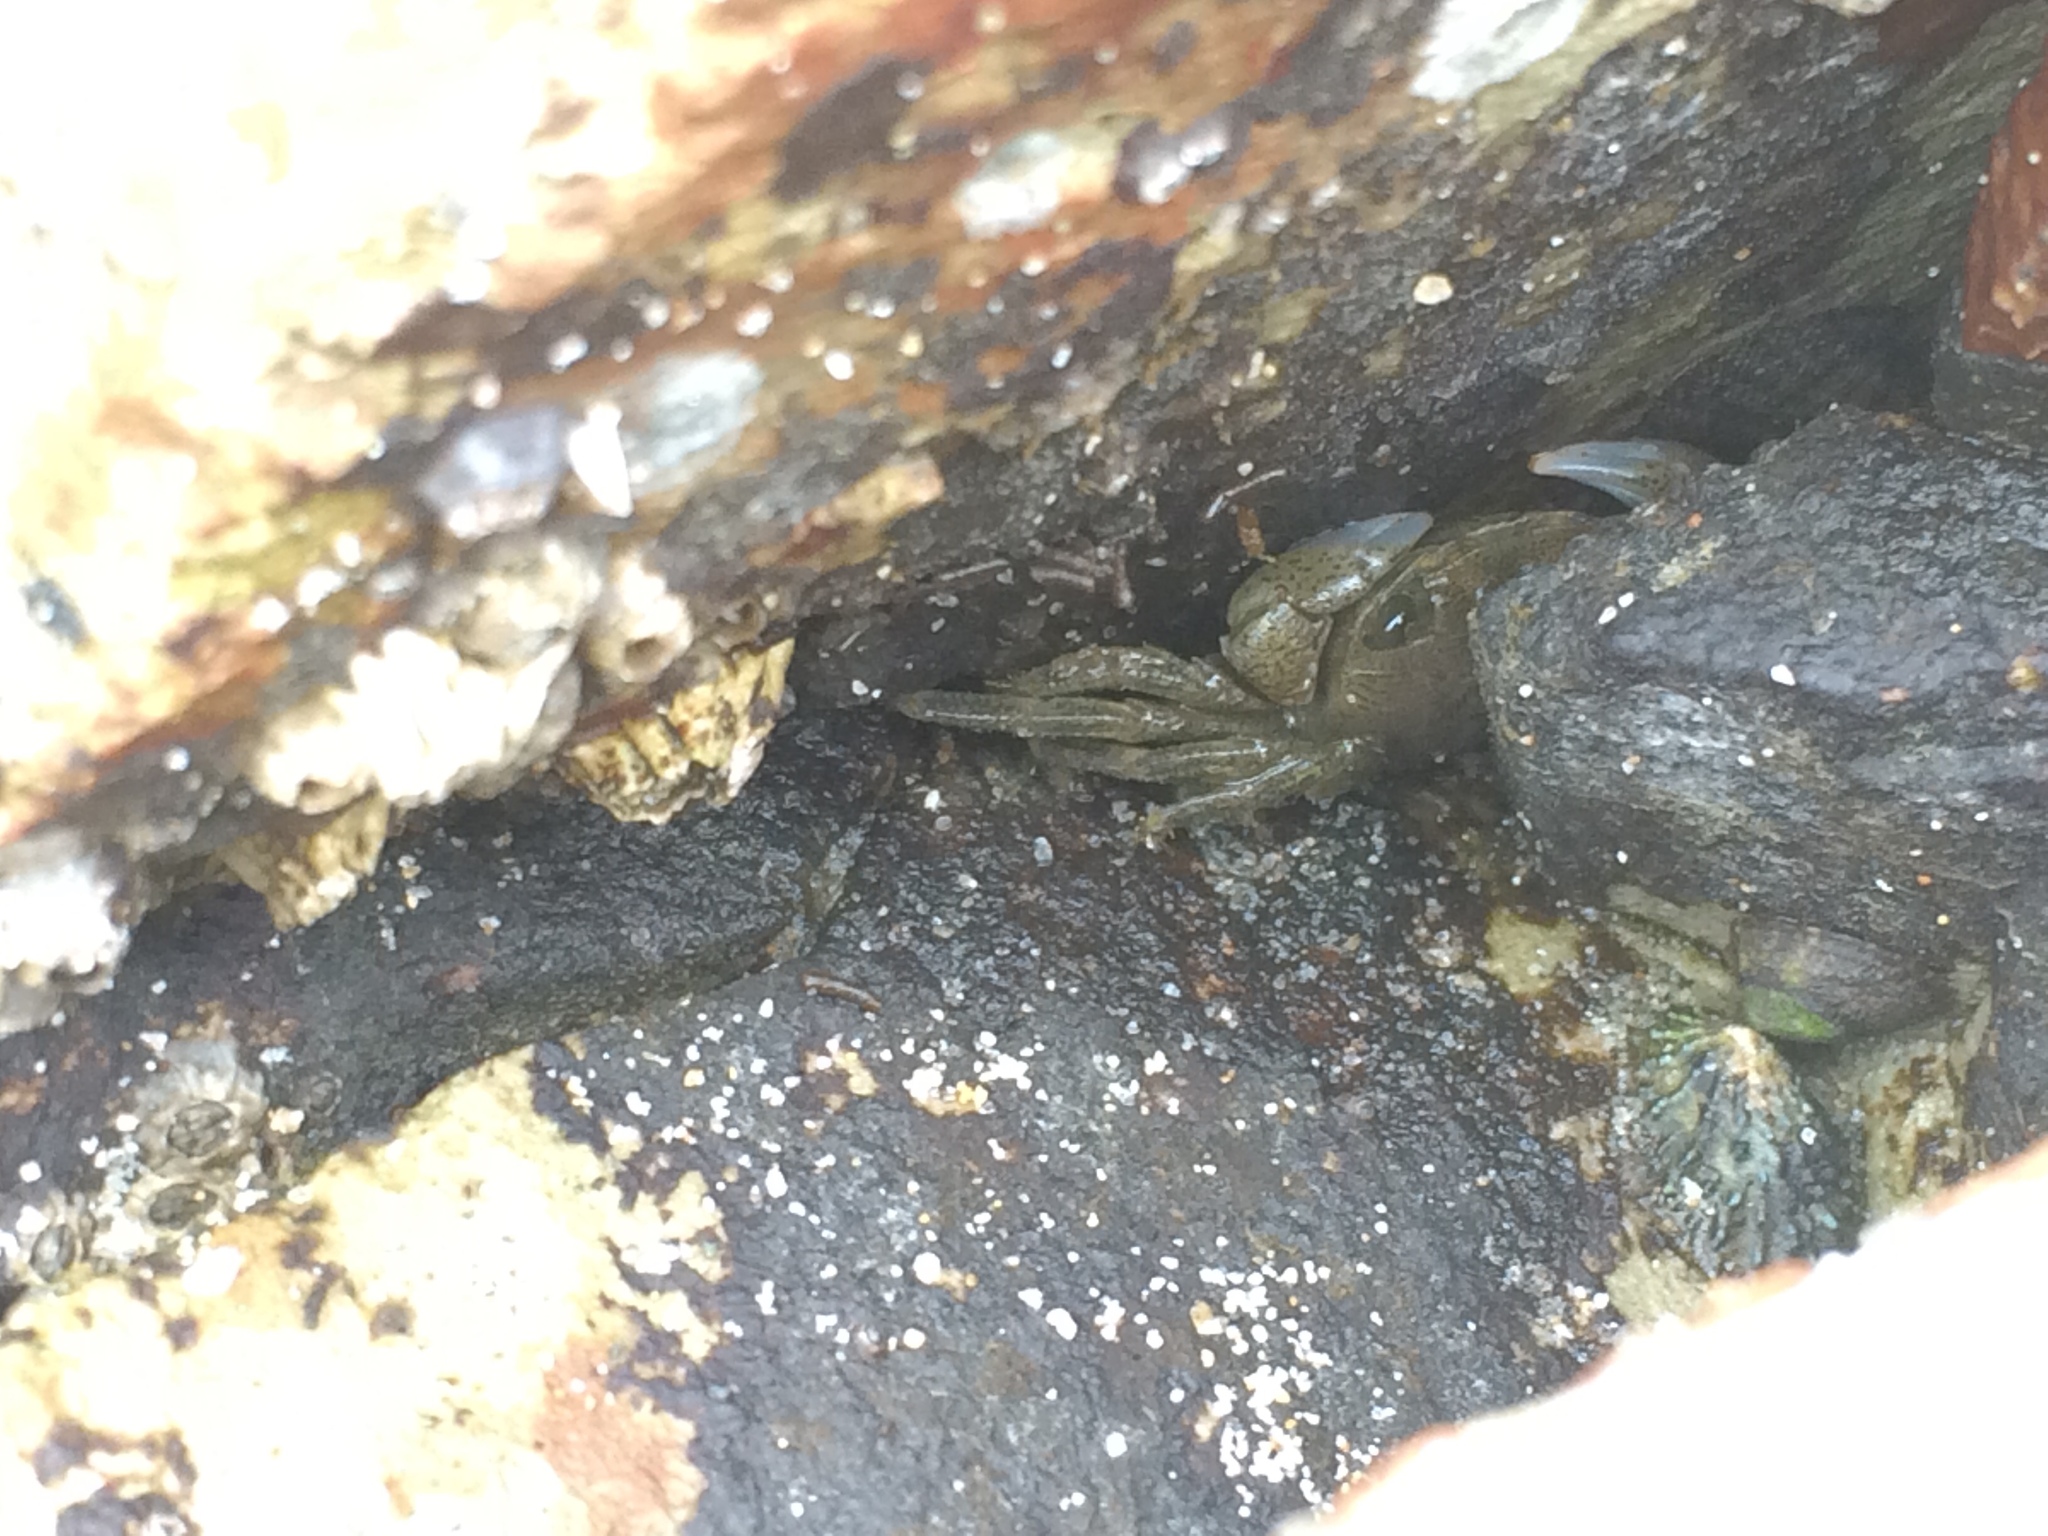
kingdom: Animalia
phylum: Arthropoda
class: Malacostraca
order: Decapoda
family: Grapsidae
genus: Pachygrapsus
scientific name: Pachygrapsus crassipes
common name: Striped shore crab
